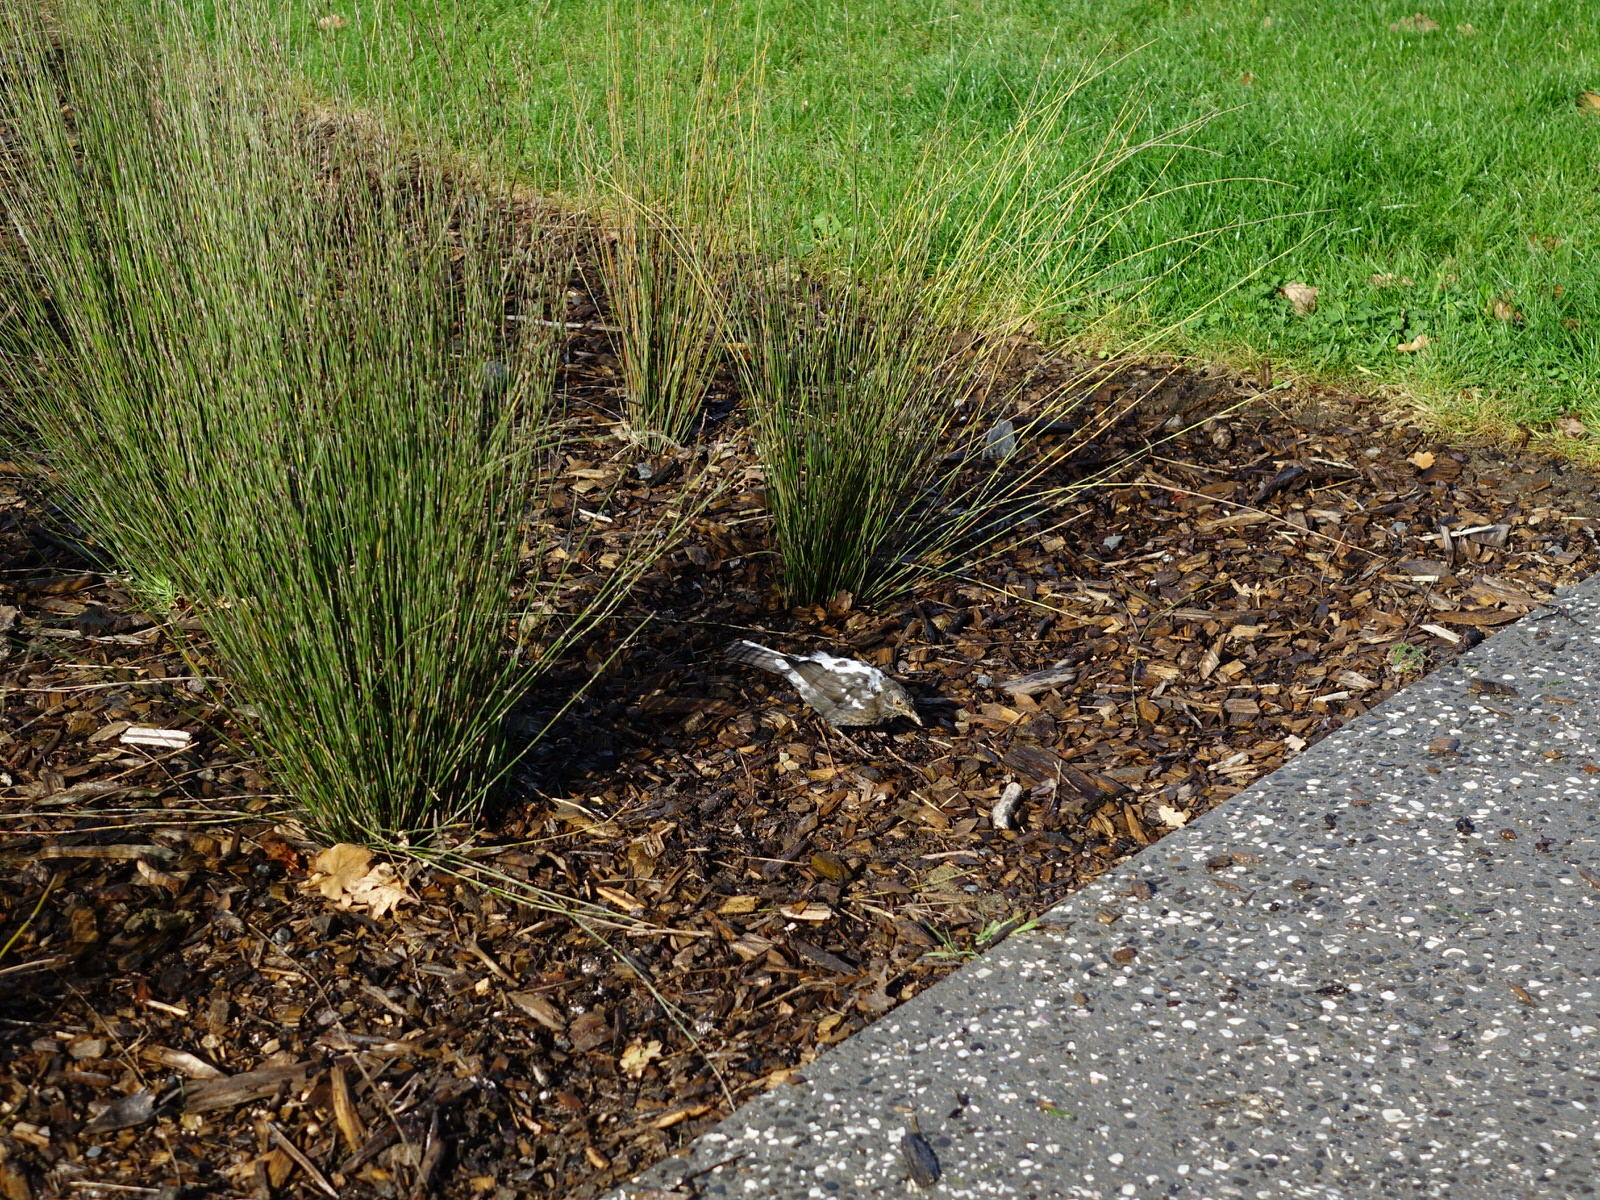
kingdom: Animalia
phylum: Chordata
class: Aves
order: Passeriformes
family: Turdidae
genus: Turdus
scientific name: Turdus merula
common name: Common blackbird
